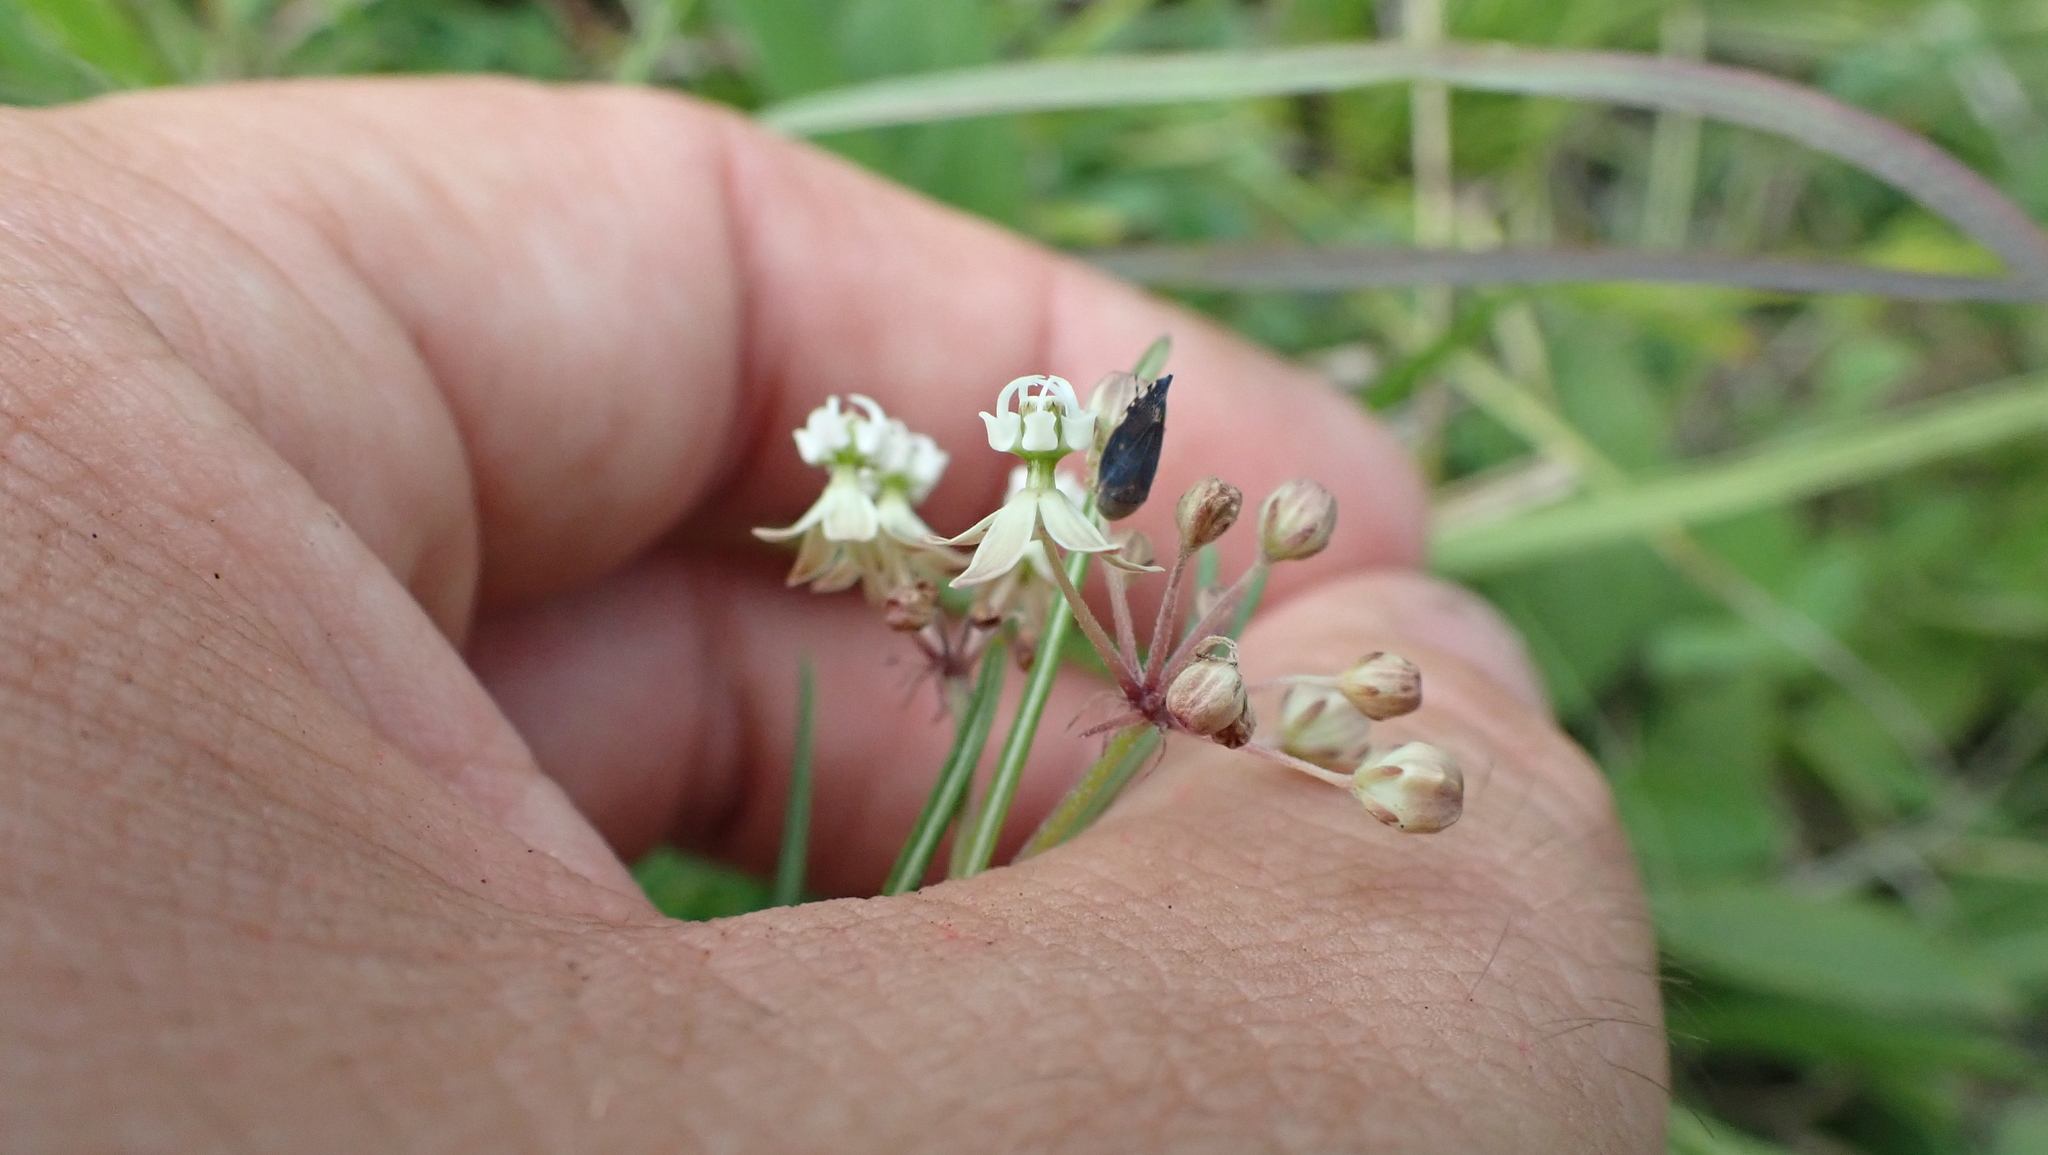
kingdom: Plantae
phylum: Tracheophyta
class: Magnoliopsida
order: Gentianales
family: Apocynaceae
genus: Asclepias
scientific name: Asclepias verticillata
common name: Eastern whorled milkweed
